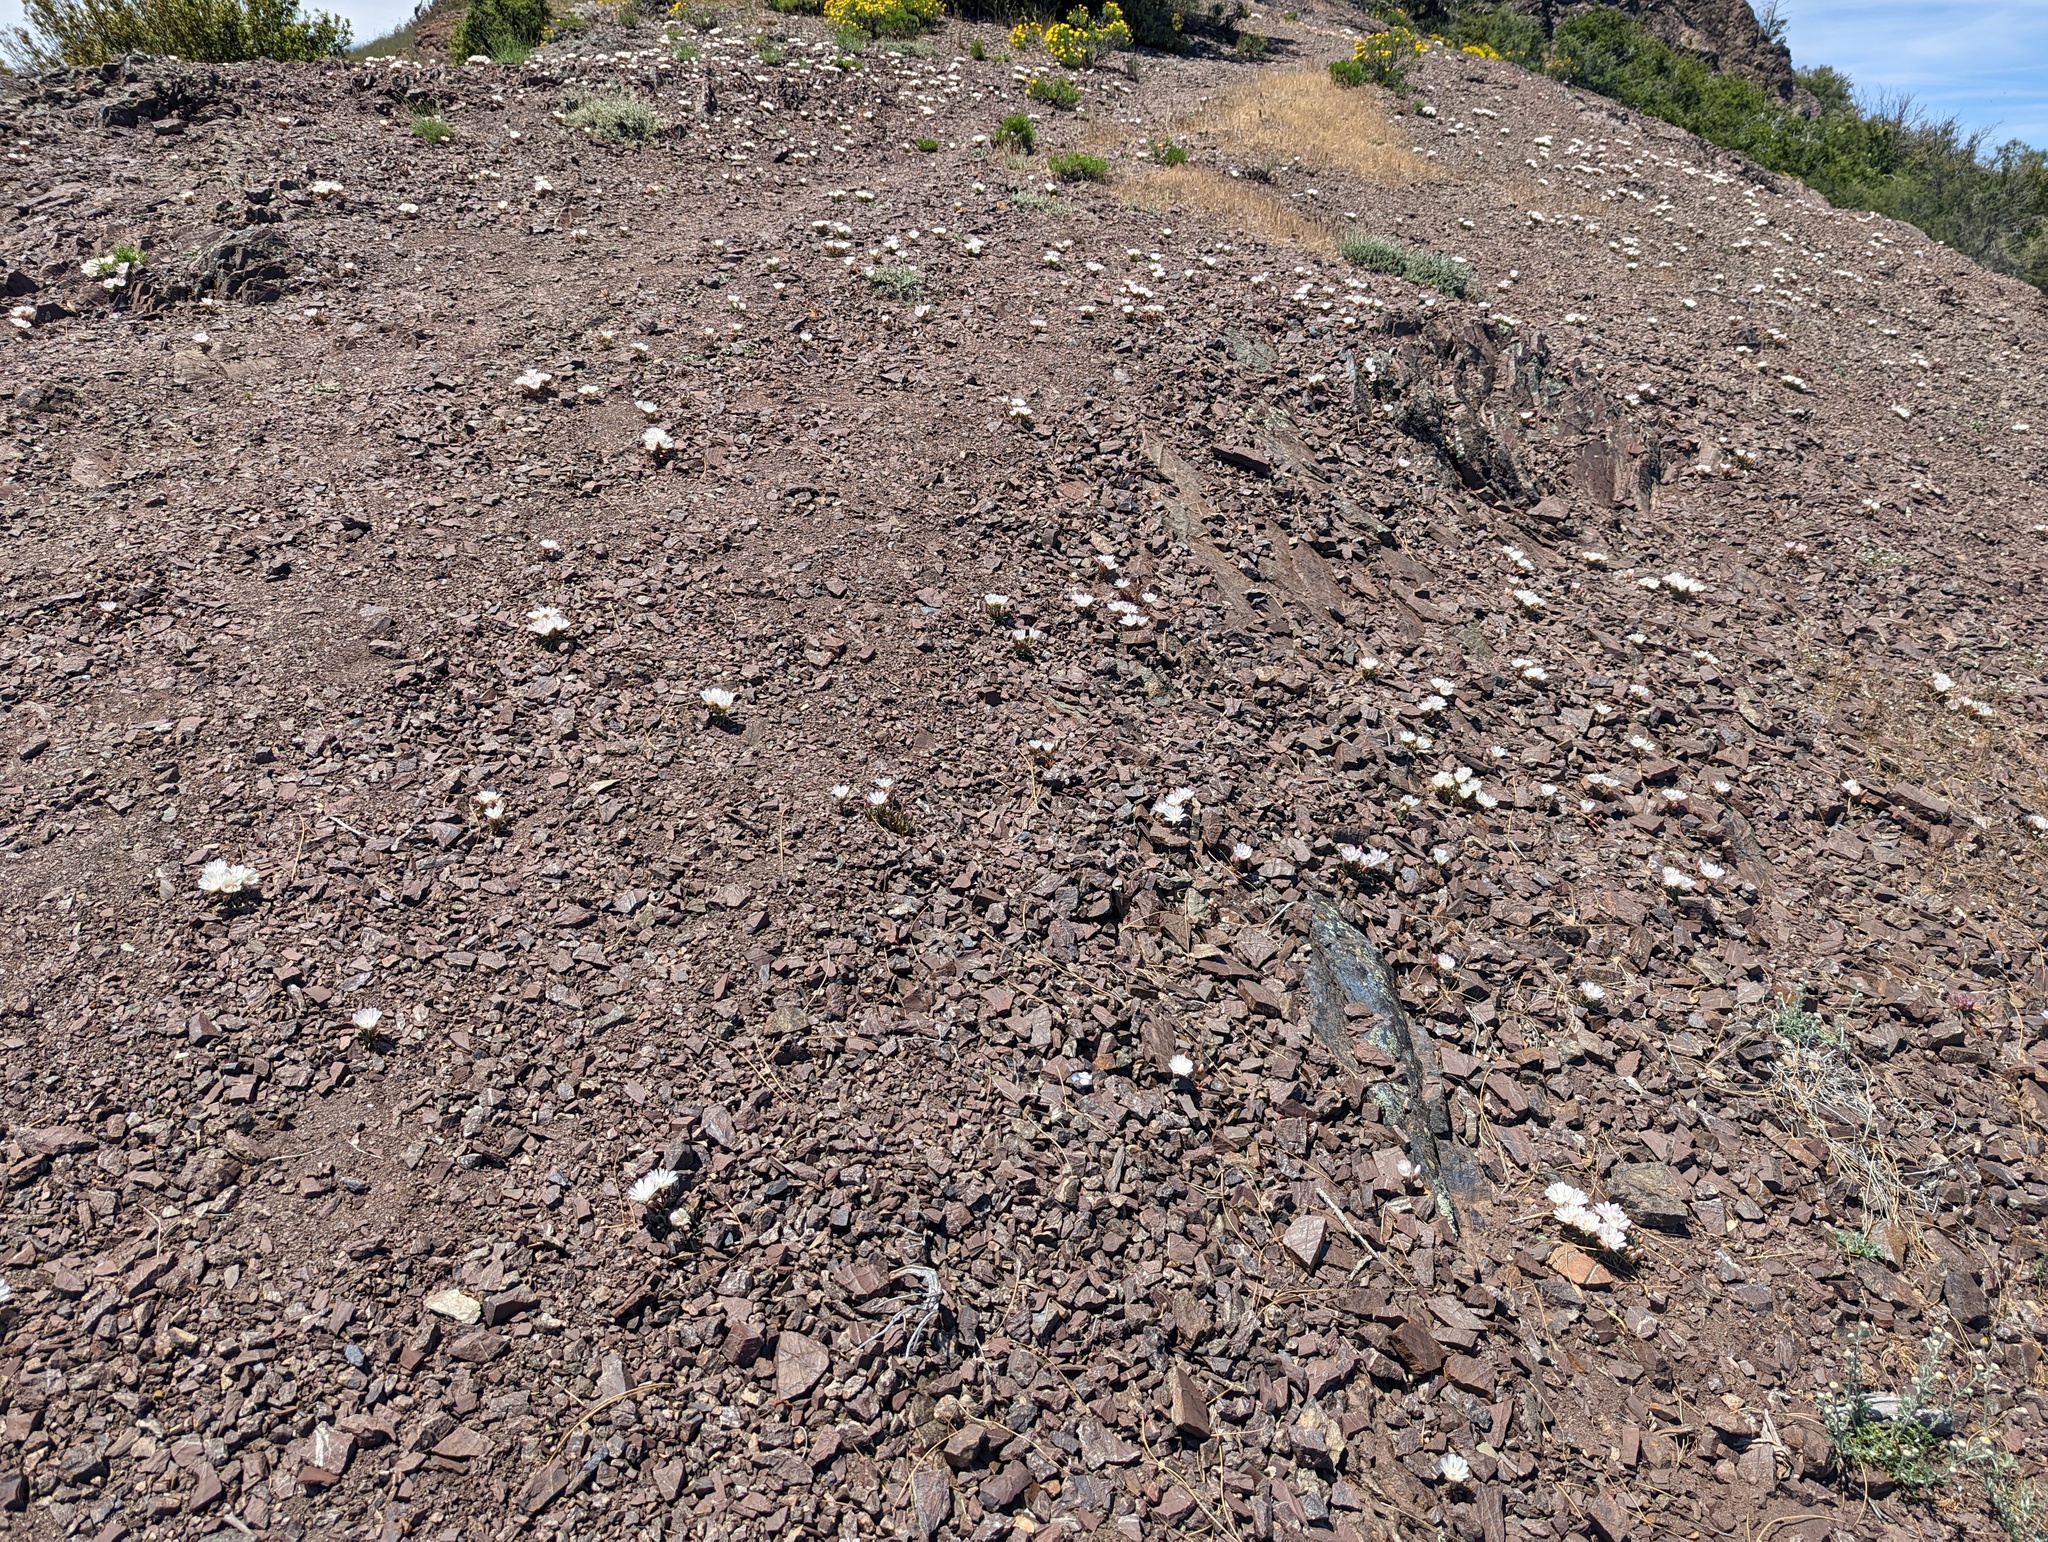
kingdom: Plantae
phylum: Tracheophyta
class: Magnoliopsida
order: Caryophyllales
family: Montiaceae
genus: Lewisia
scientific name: Lewisia rediviva
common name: Bitter-root
